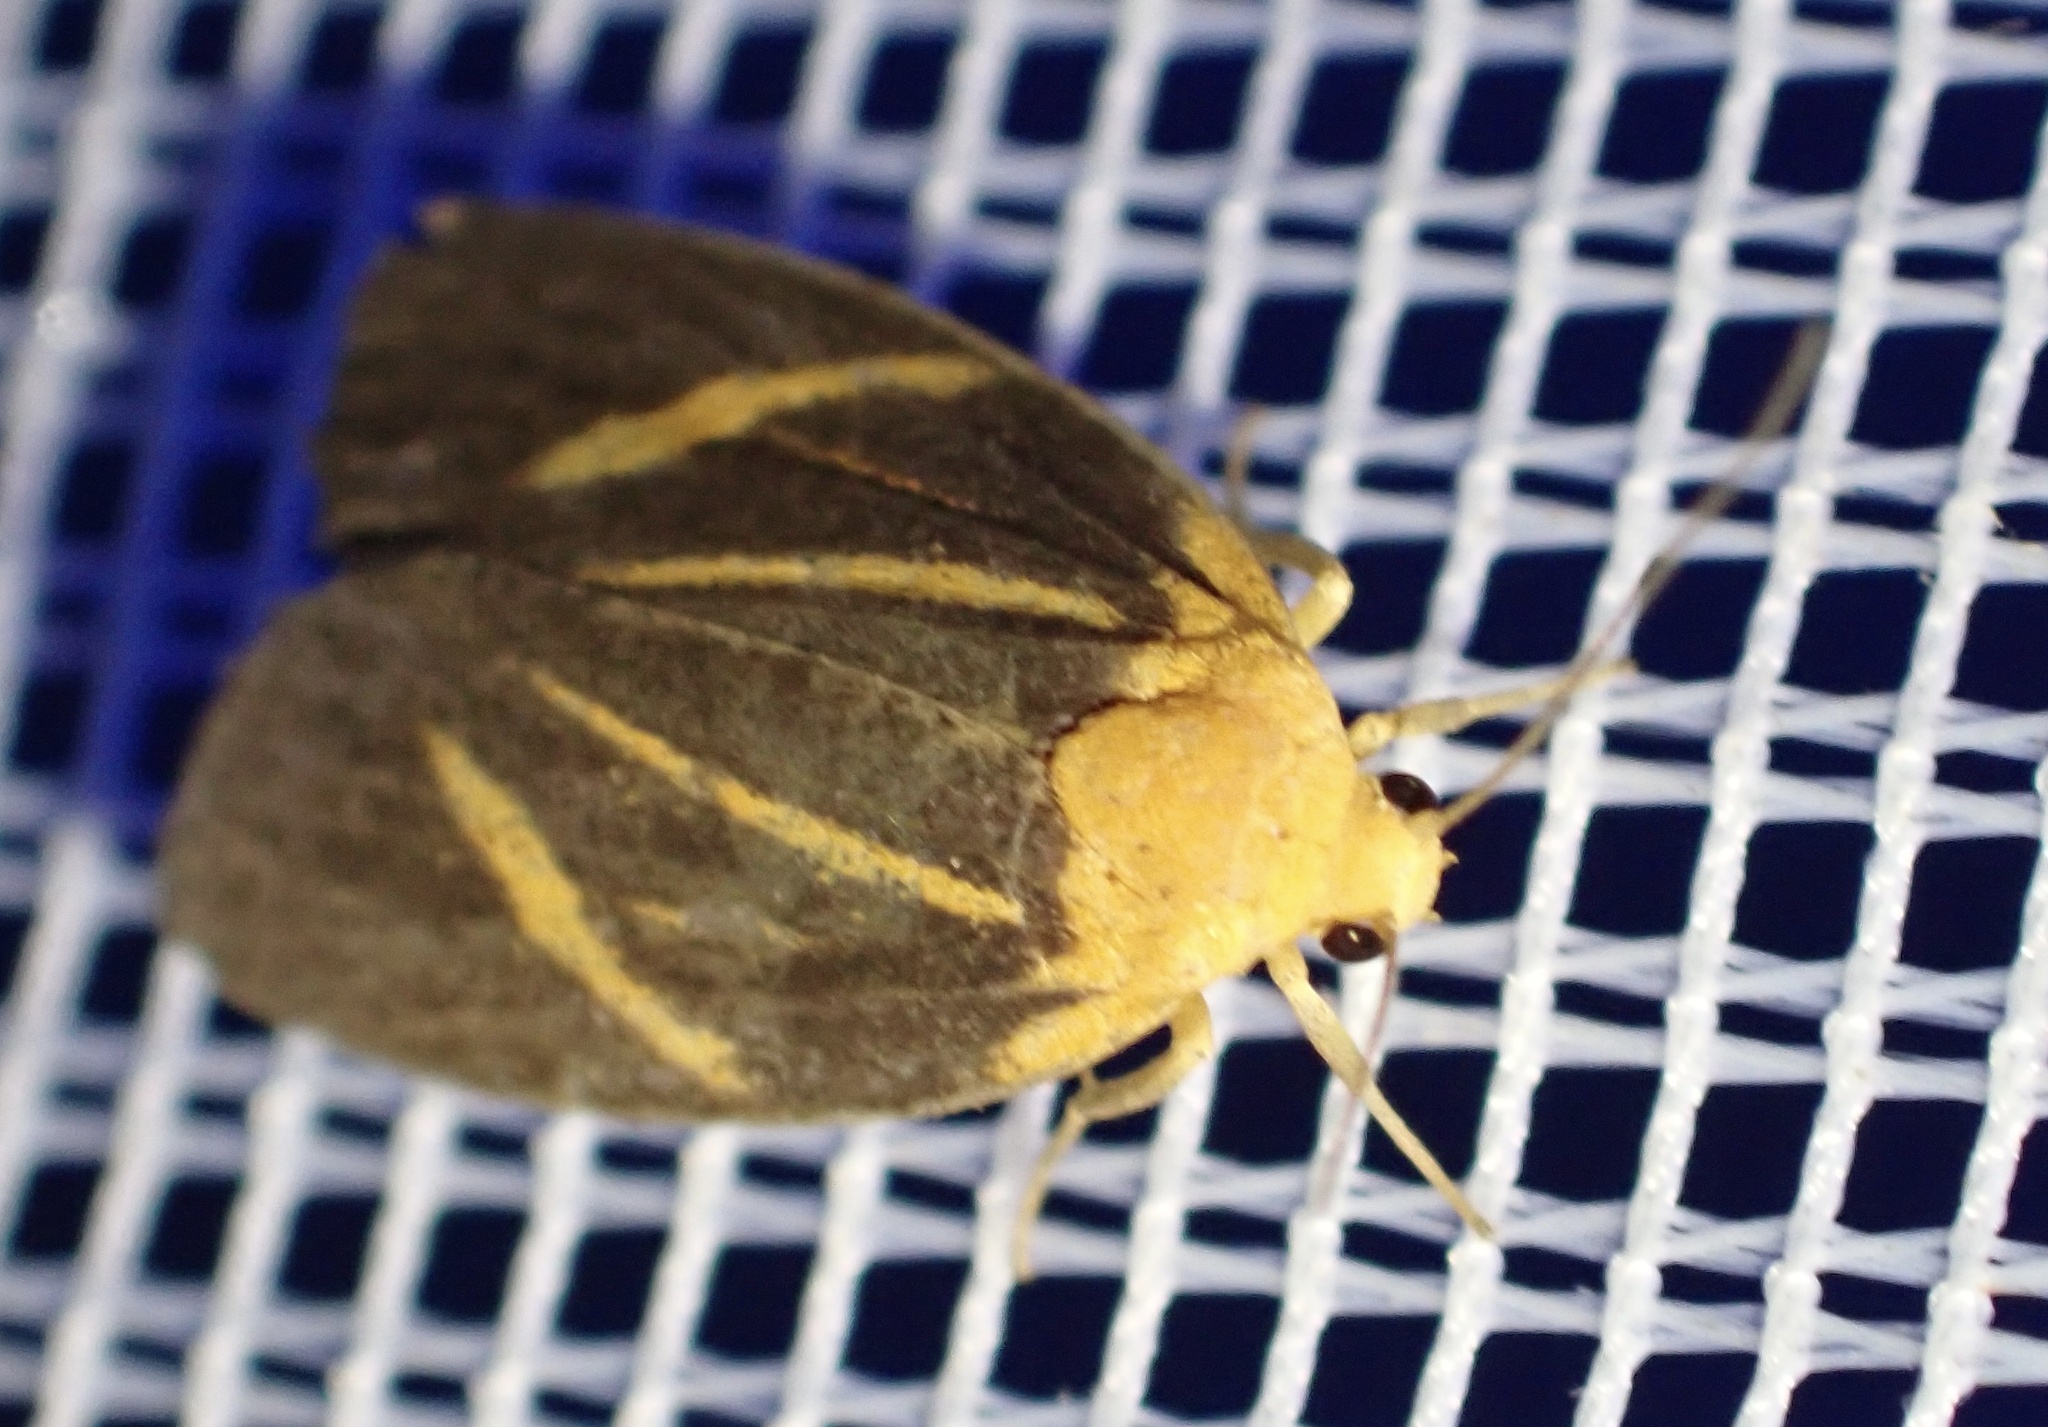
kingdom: Animalia
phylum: Arthropoda
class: Insecta
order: Lepidoptera
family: Erebidae
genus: Darantasia
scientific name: Darantasia caerulescens
